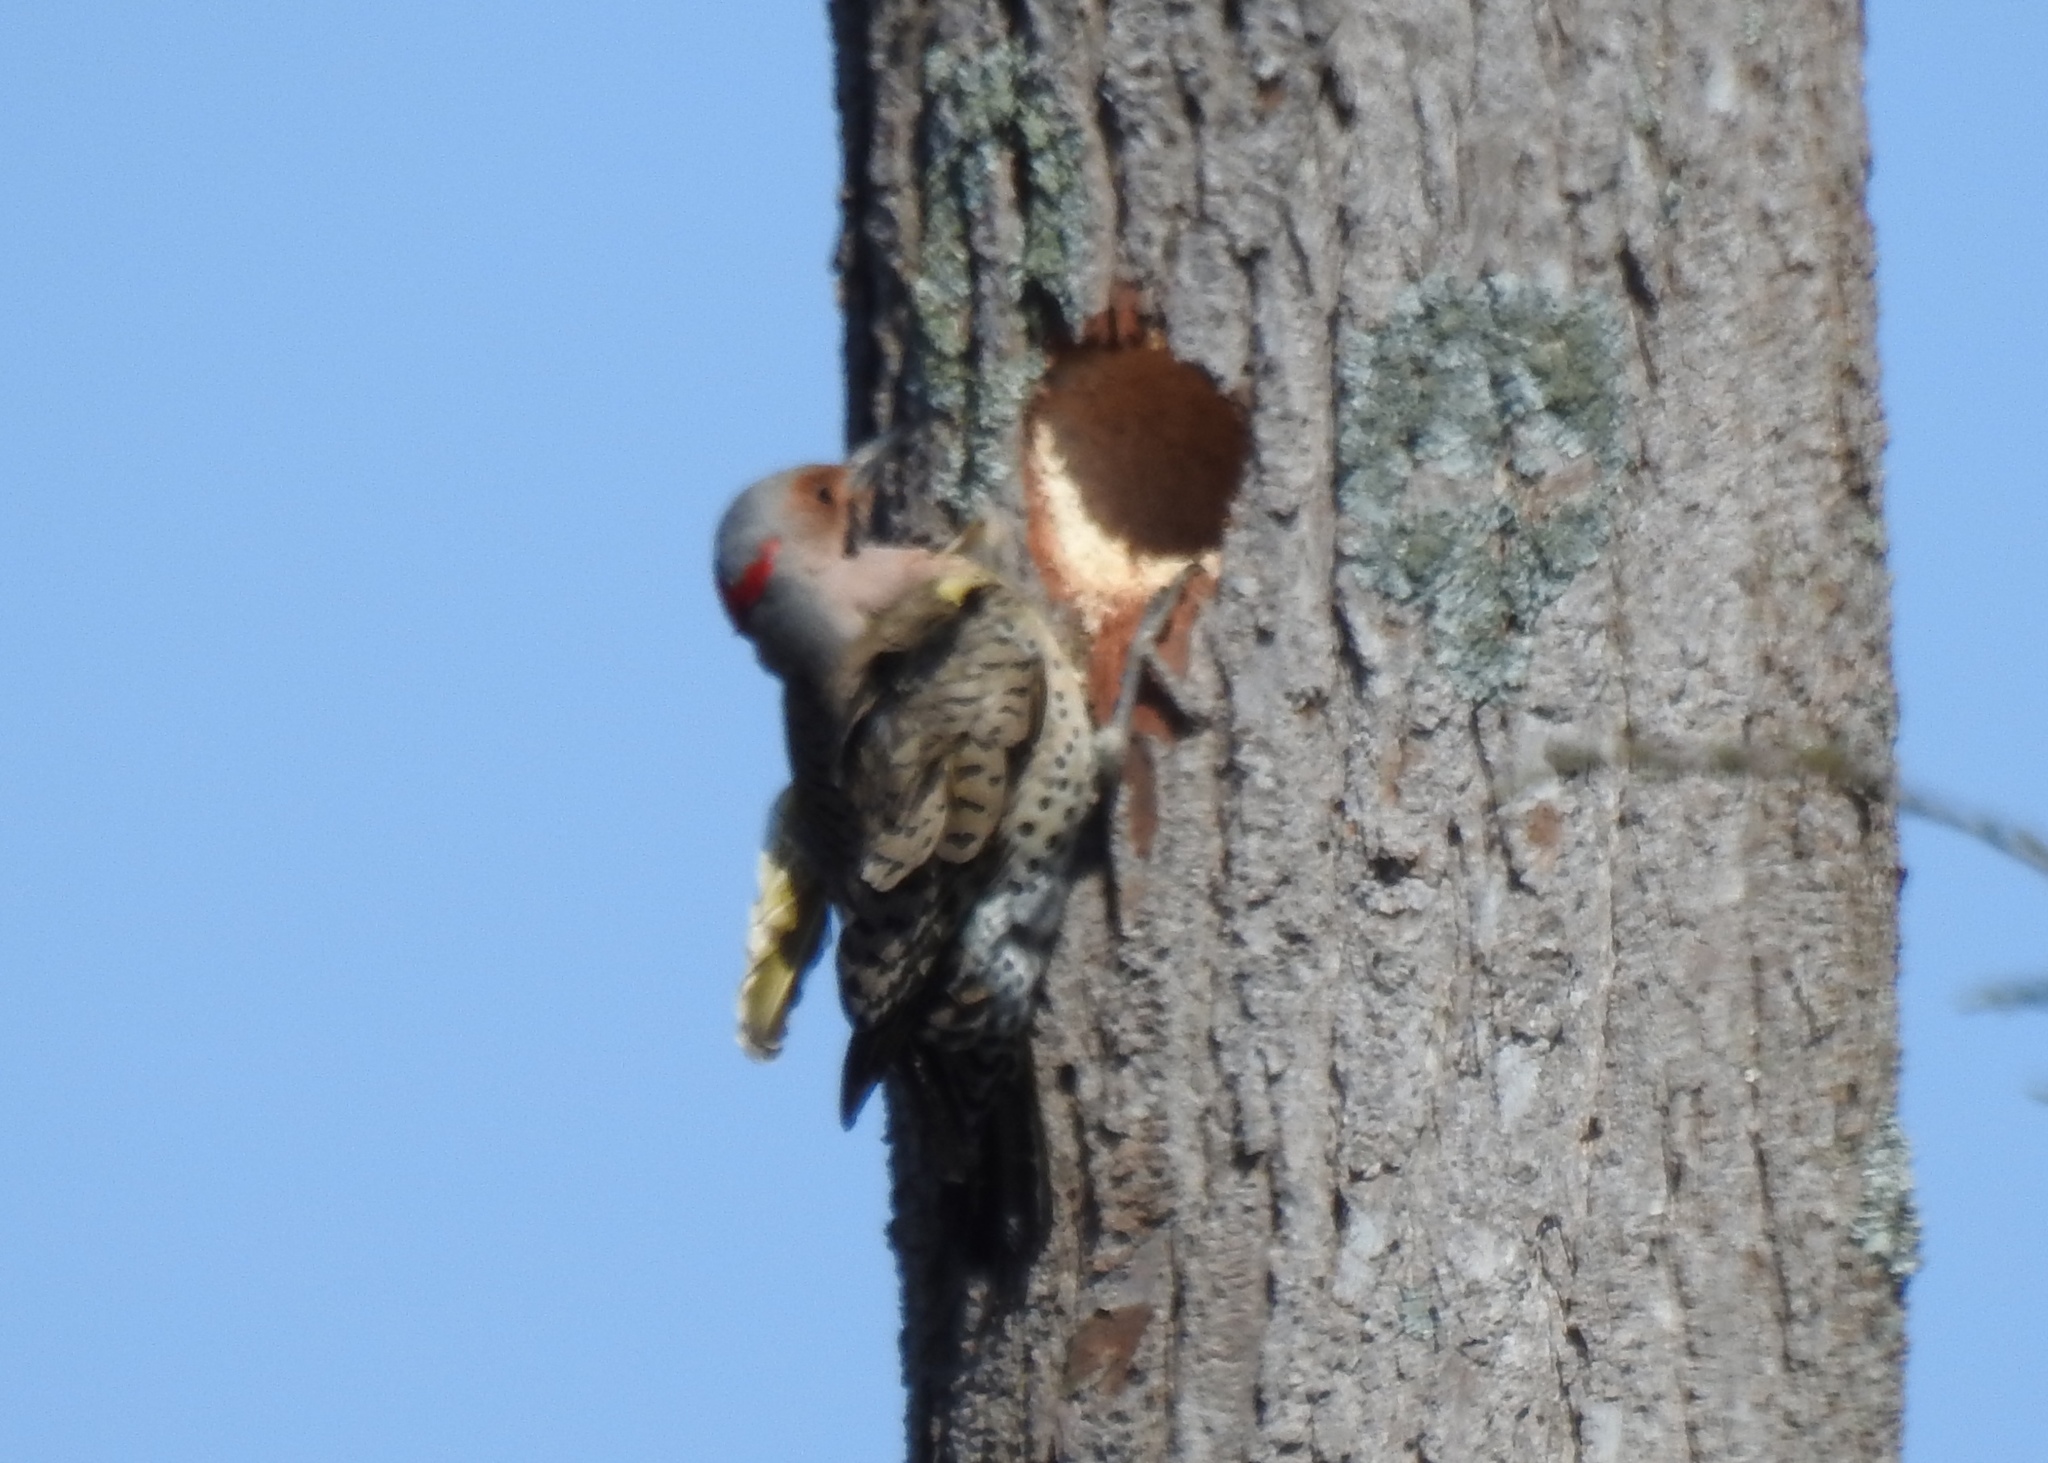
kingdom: Animalia
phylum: Chordata
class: Aves
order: Piciformes
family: Picidae
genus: Colaptes
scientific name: Colaptes auratus
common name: Northern flicker
